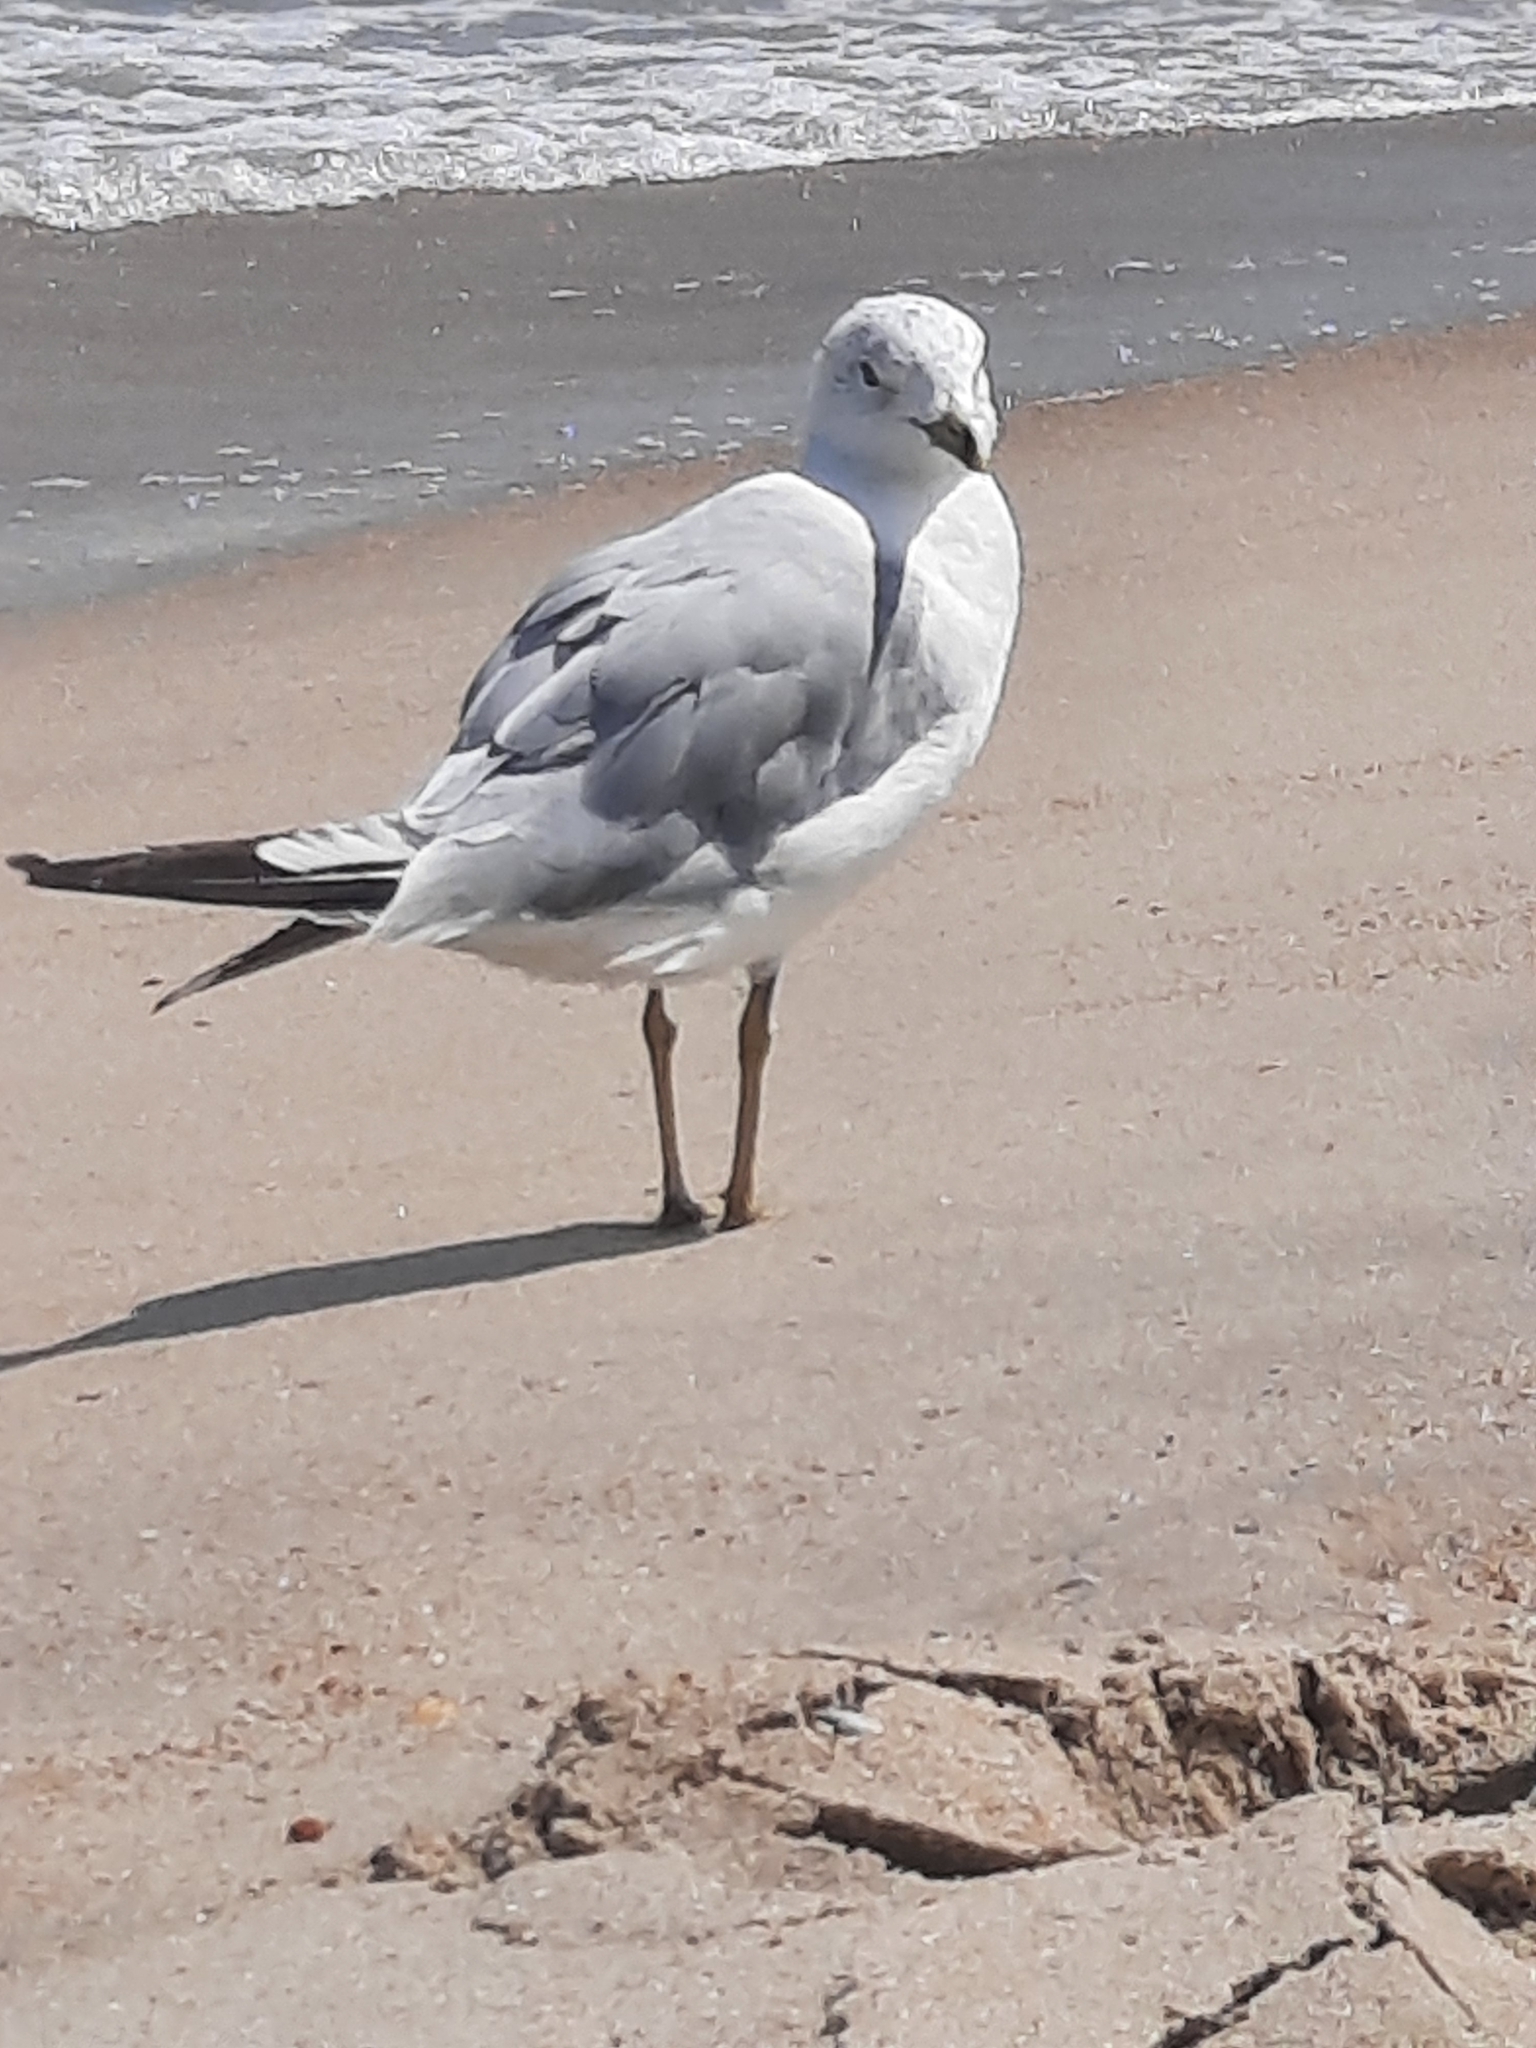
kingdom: Animalia
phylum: Chordata
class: Aves
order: Charadriiformes
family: Laridae
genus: Larus
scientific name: Larus delawarensis
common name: Ring-billed gull
